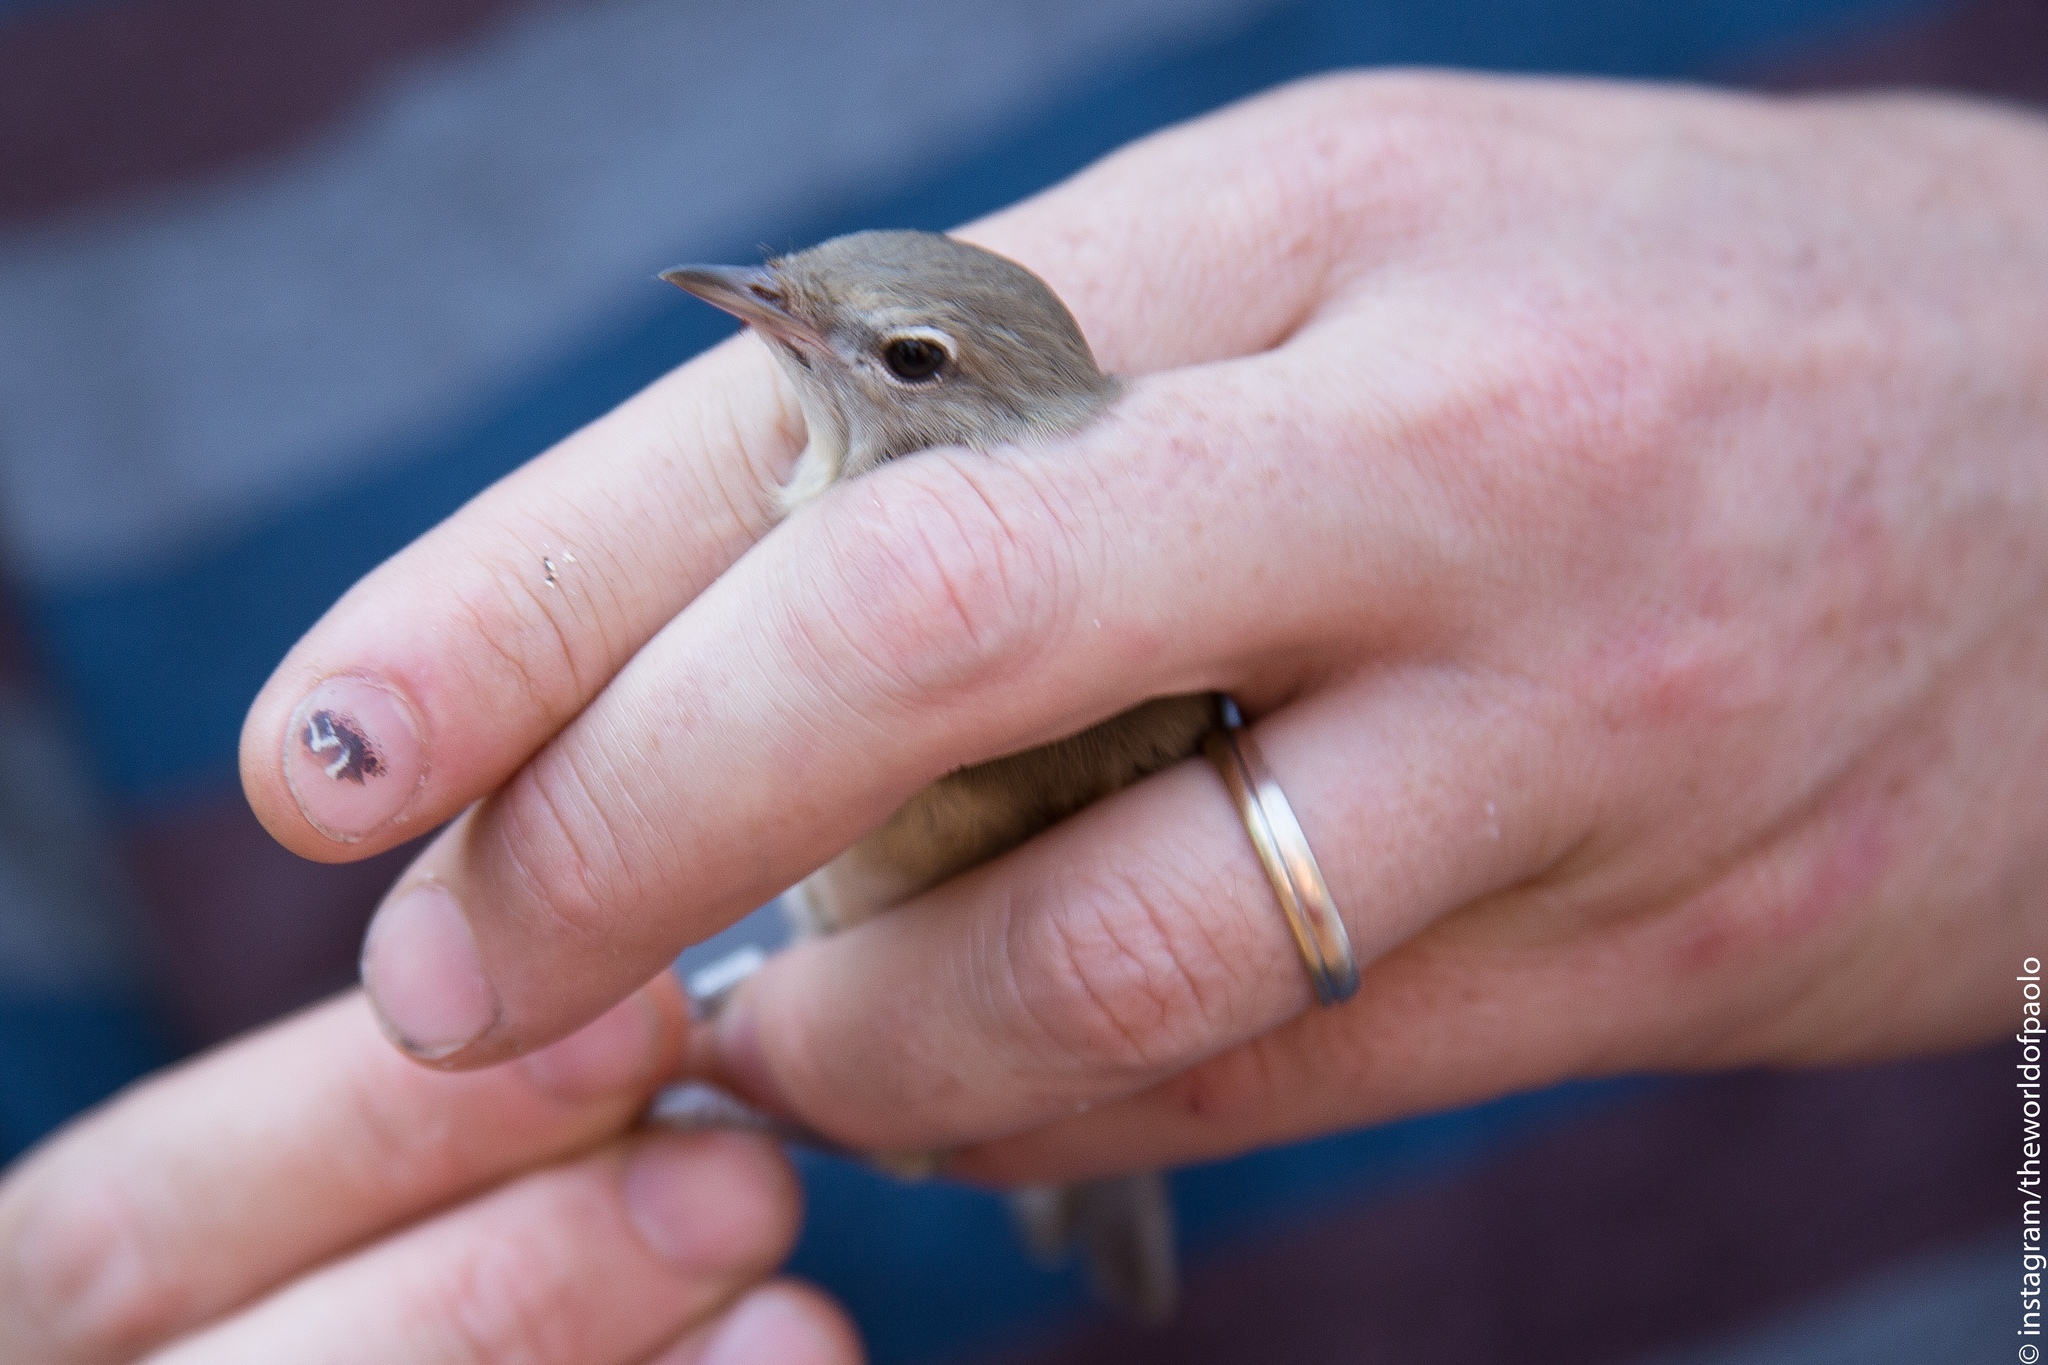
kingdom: Animalia
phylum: Chordata
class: Aves
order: Passeriformes
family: Sylviidae
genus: Sylvia
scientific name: Sylvia borin
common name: Garden warbler
